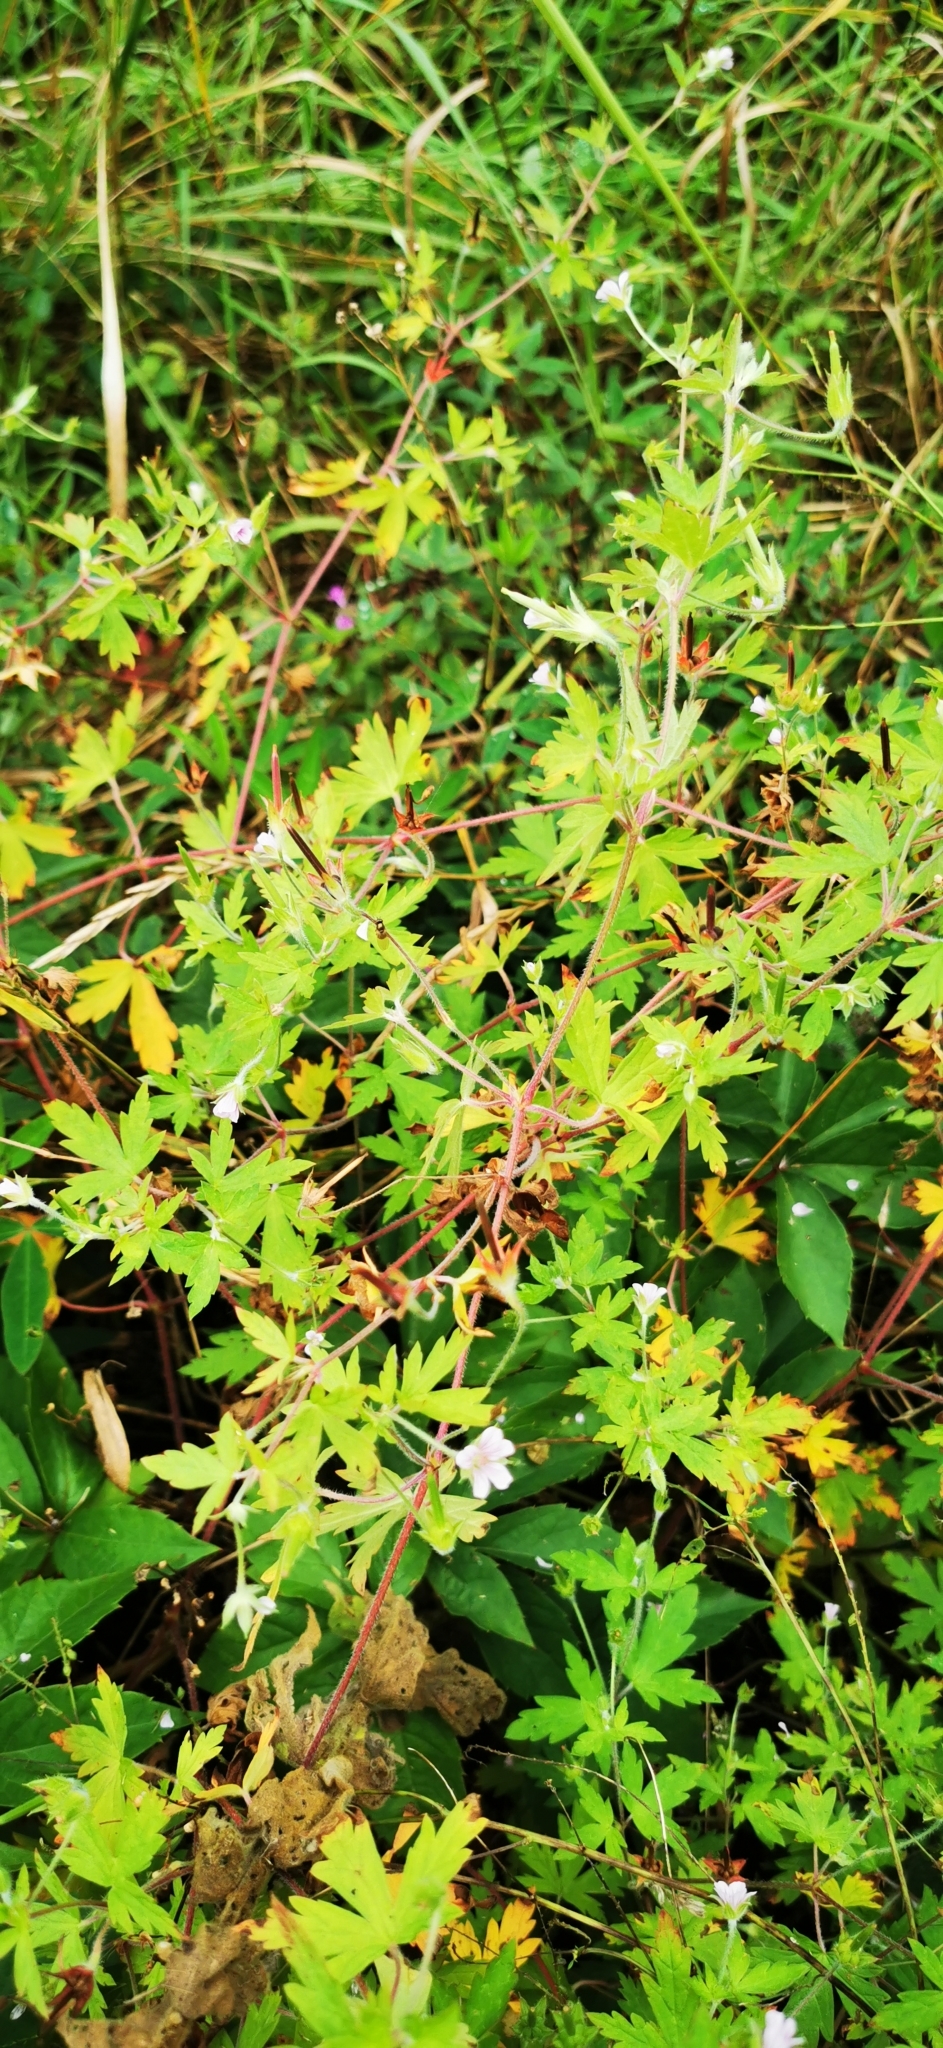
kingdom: Plantae
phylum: Tracheophyta
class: Magnoliopsida
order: Geraniales
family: Geraniaceae
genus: Geranium
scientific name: Geranium sibiricum
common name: Siberian crane's-bill
